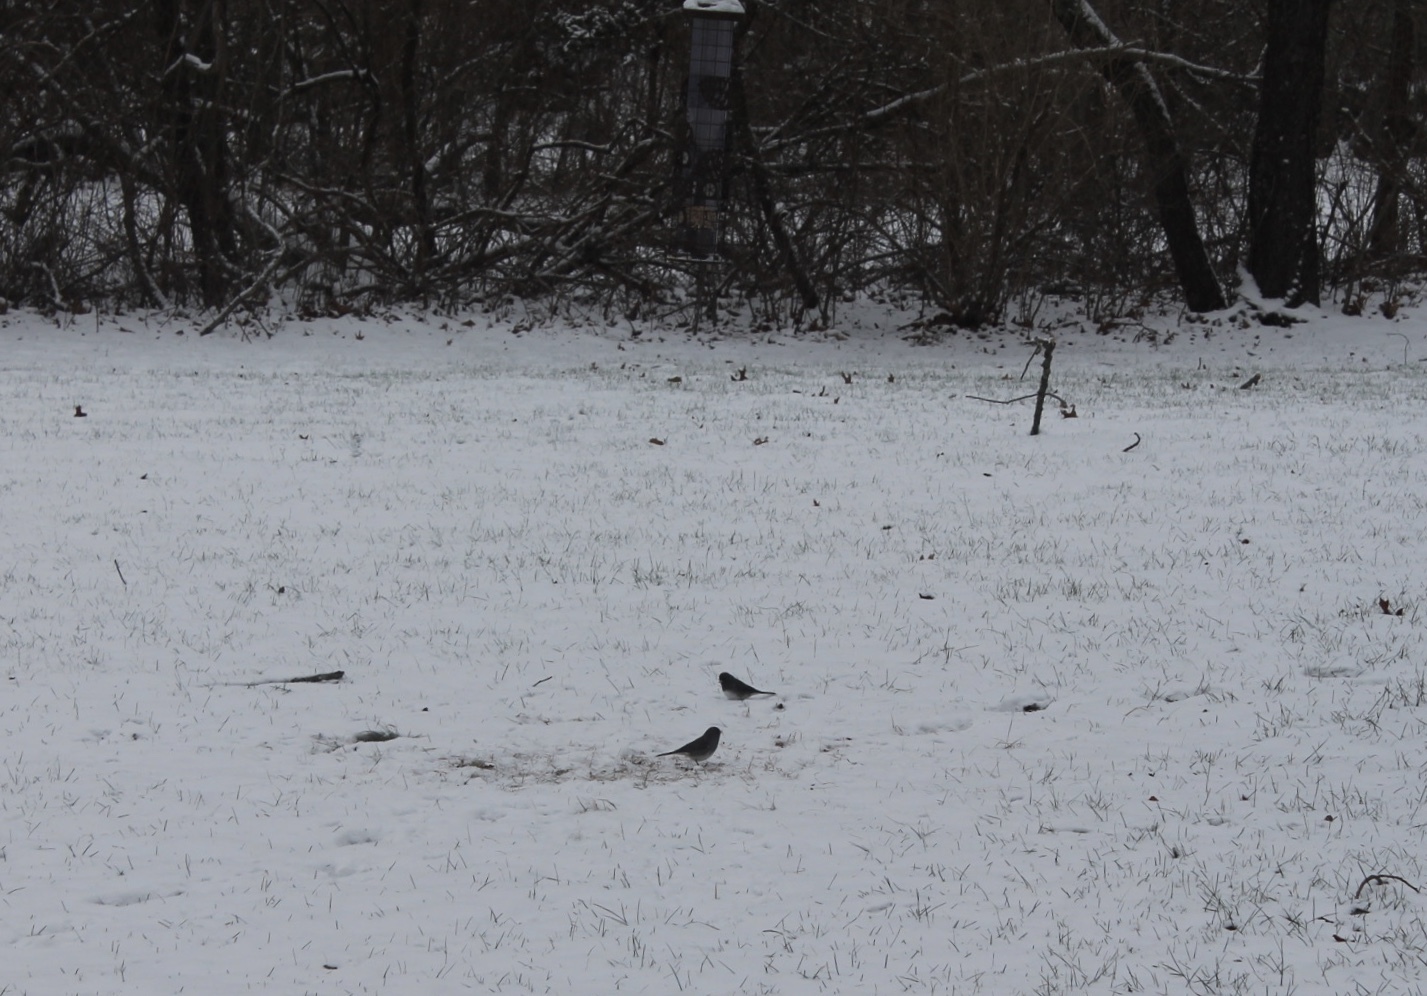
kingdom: Animalia
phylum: Chordata
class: Aves
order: Passeriformes
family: Passerellidae
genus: Junco
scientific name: Junco hyemalis
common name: Dark-eyed junco
